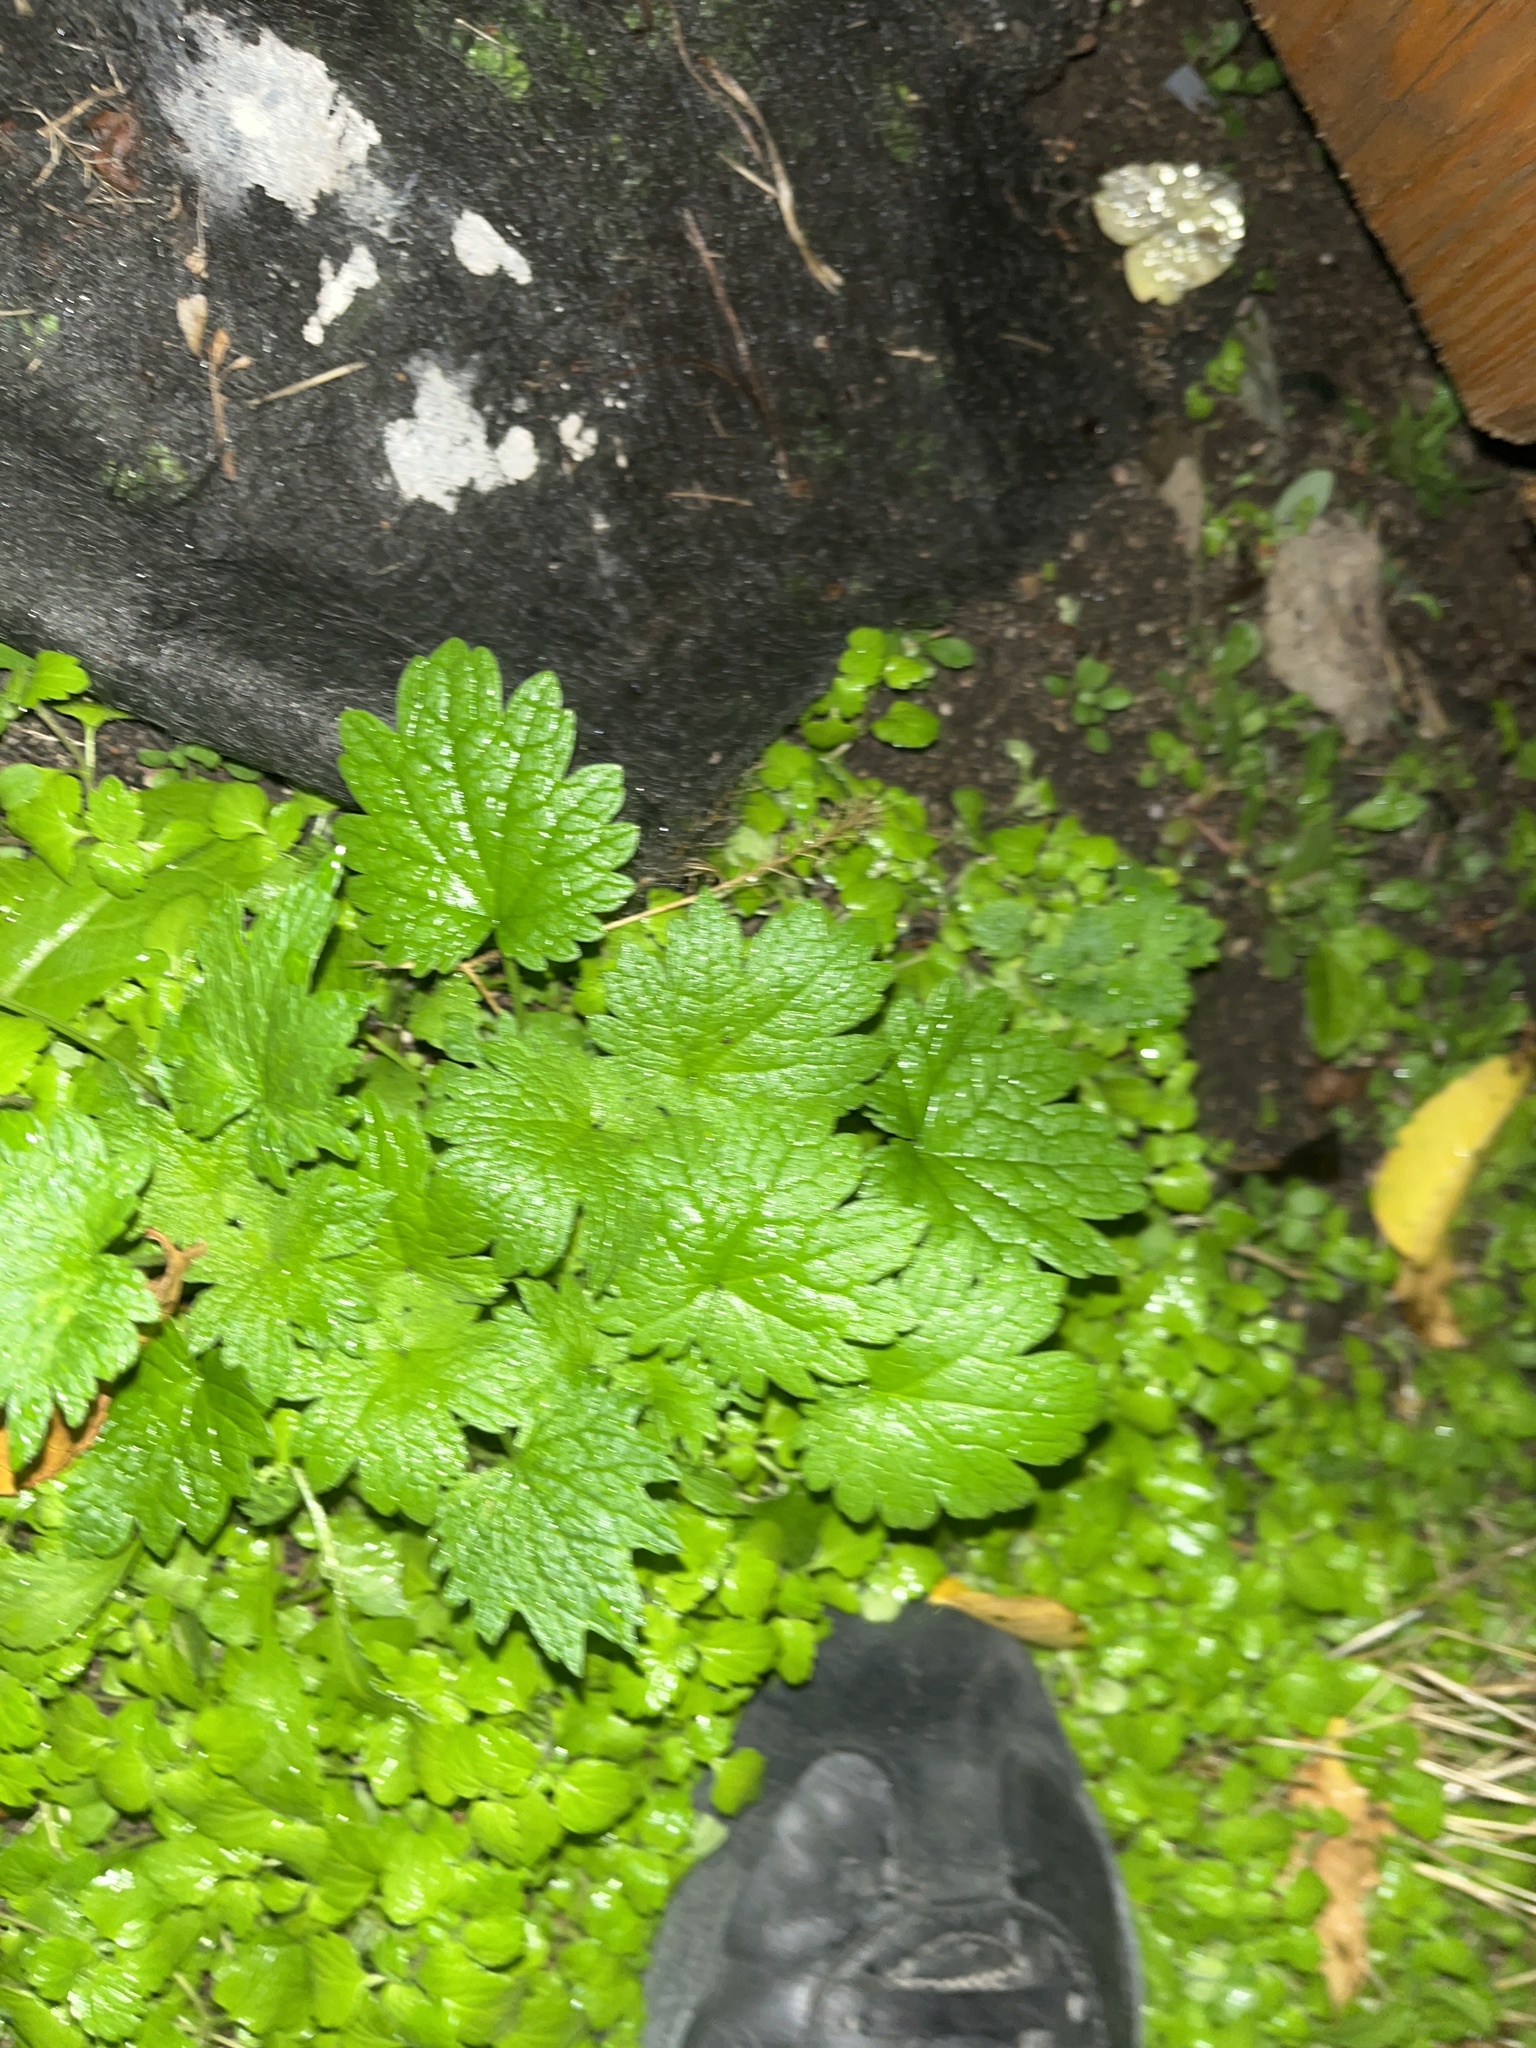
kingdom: Plantae
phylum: Tracheophyta
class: Magnoliopsida
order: Lamiales
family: Lamiaceae
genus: Leonurus
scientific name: Leonurus cardiaca
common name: Motherwort
